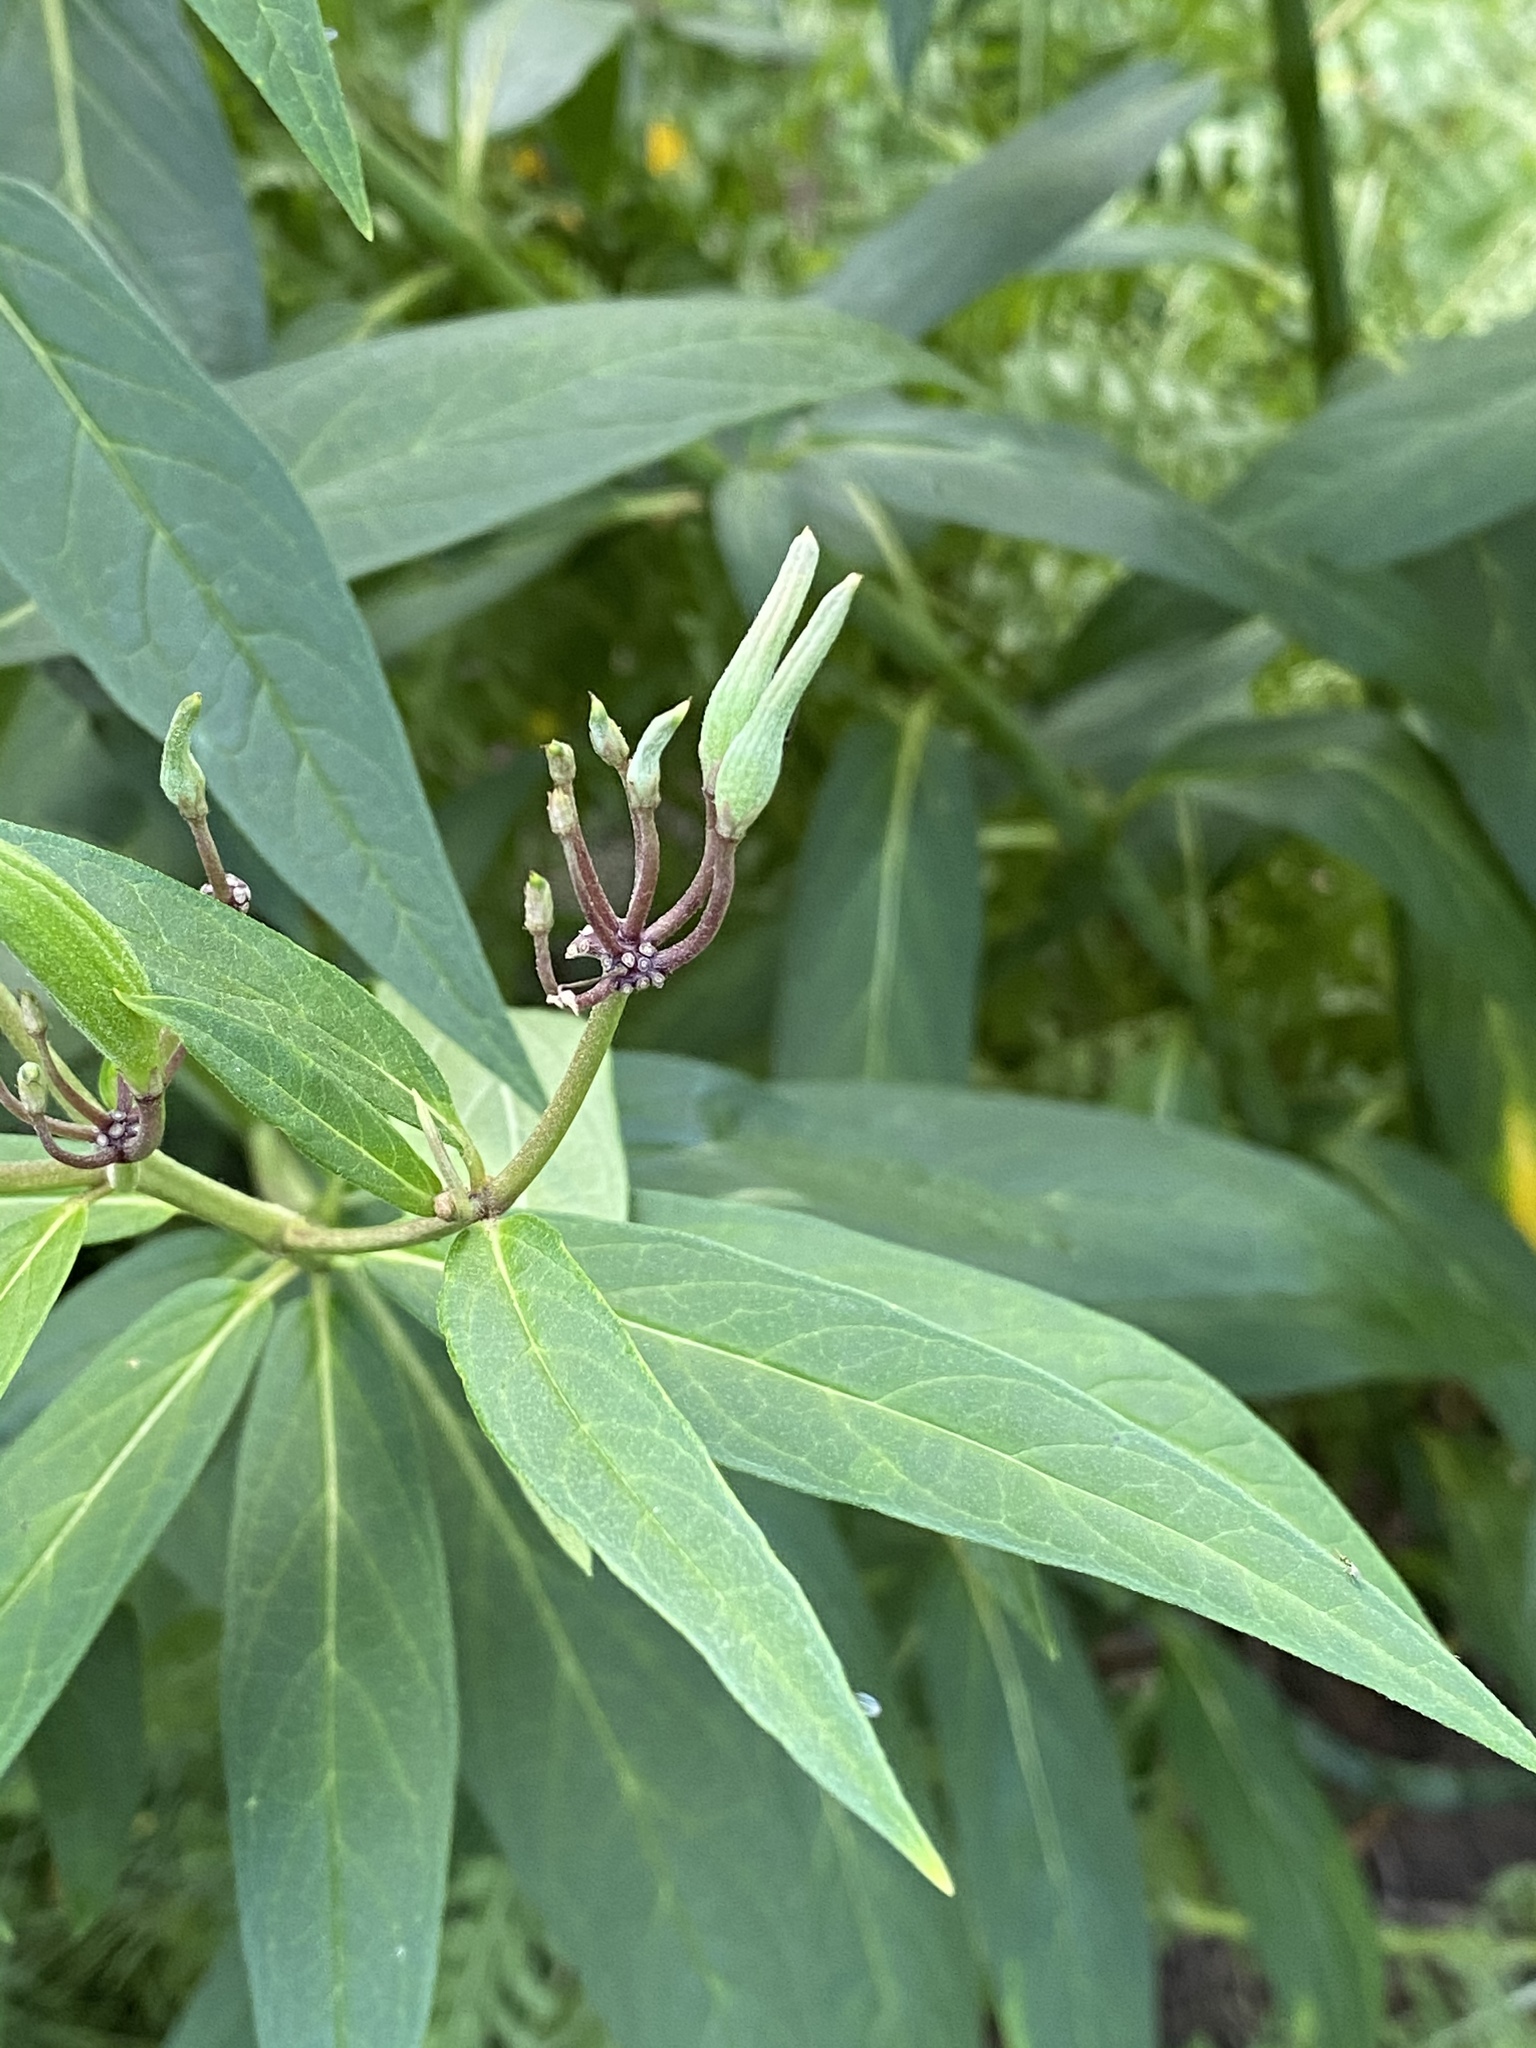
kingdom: Plantae
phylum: Tracheophyta
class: Magnoliopsida
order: Gentianales
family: Apocynaceae
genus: Asclepias
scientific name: Asclepias incarnata
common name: Swamp milkweed
